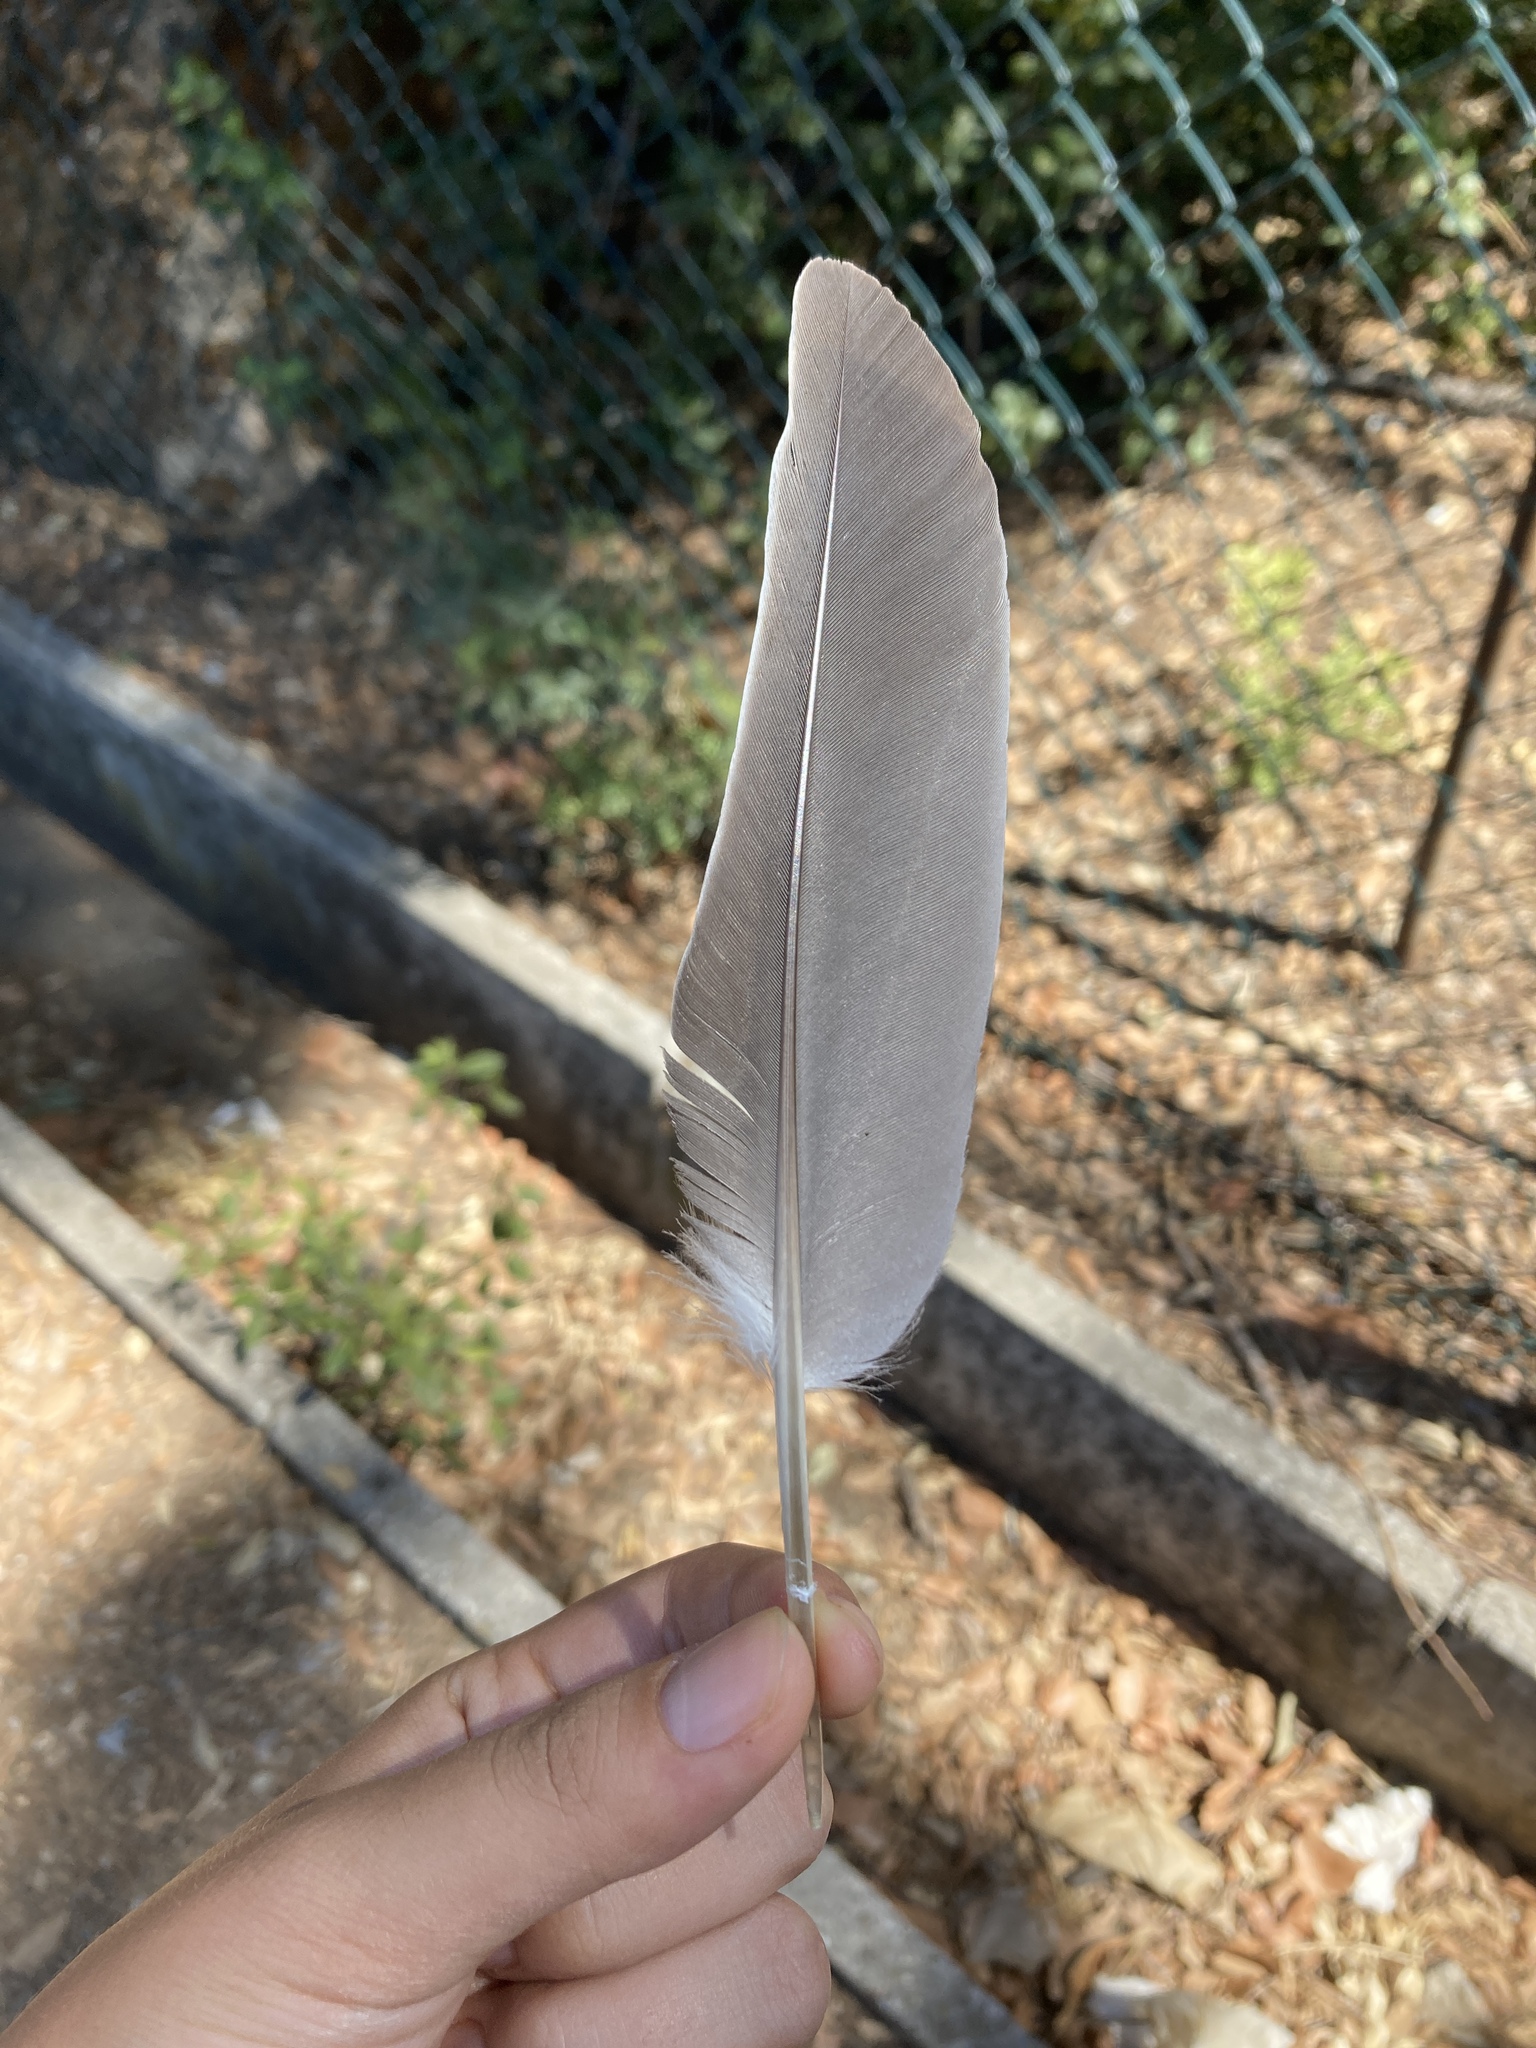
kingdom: Animalia
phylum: Chordata
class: Aves
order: Columbiformes
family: Columbidae
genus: Columba
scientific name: Columba palumbus
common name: Common wood pigeon
